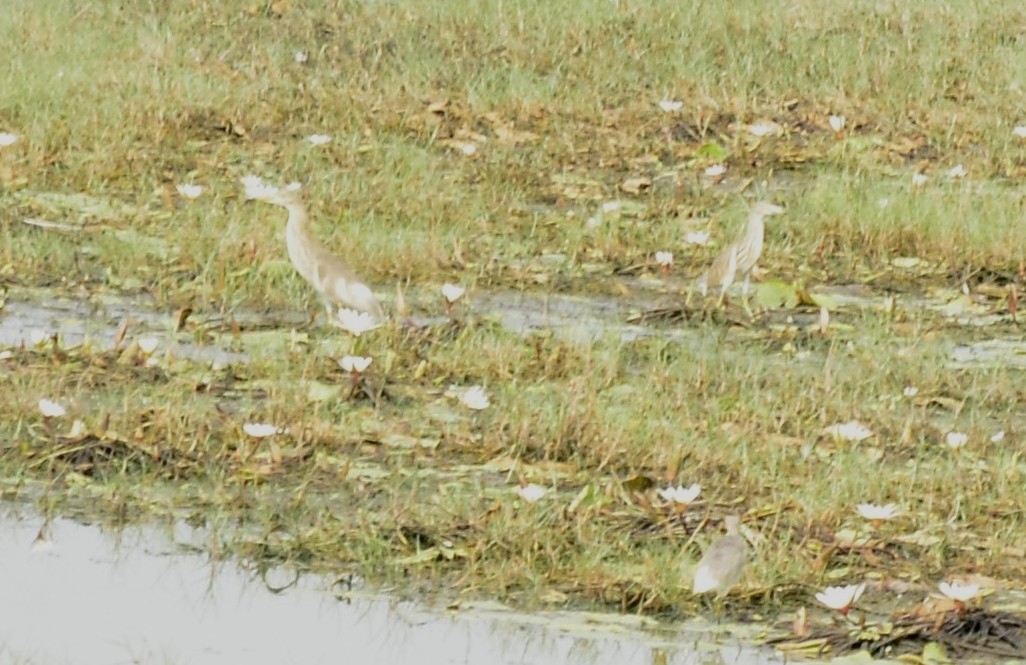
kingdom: Animalia
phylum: Chordata
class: Aves
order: Pelecaniformes
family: Ardeidae
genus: Ardeola
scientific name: Ardeola grayii
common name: Indian pond heron
